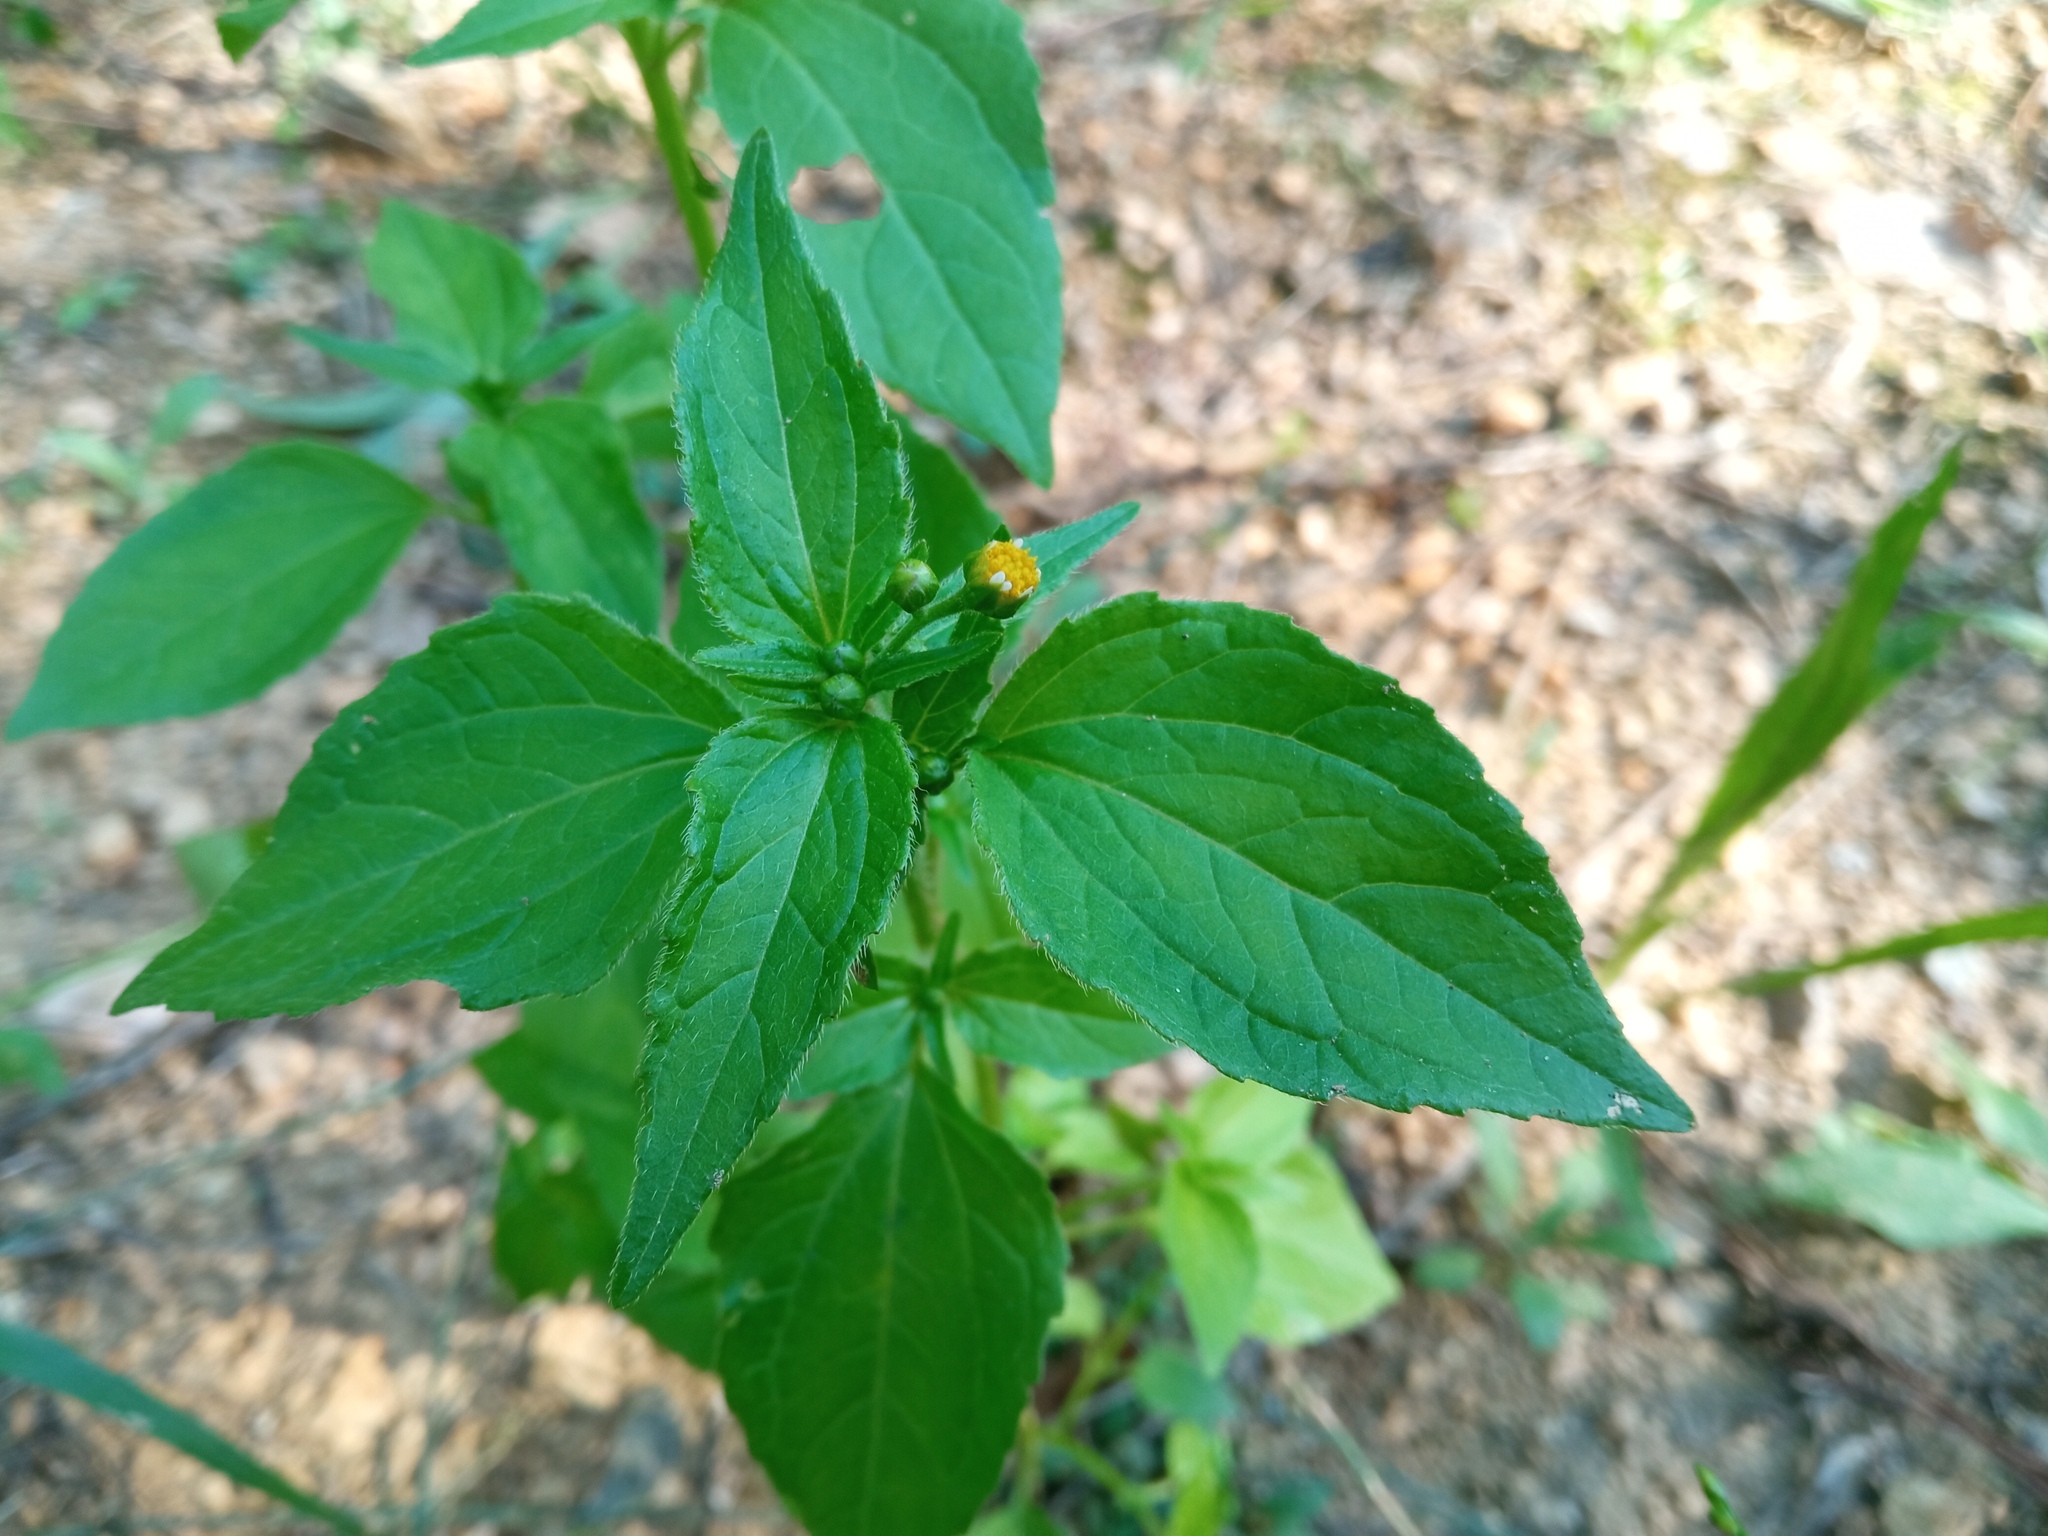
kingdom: Plantae
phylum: Tracheophyta
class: Magnoliopsida
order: Asterales
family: Asteraceae
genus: Galinsoga
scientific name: Galinsoga parviflora
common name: Gallant soldier
